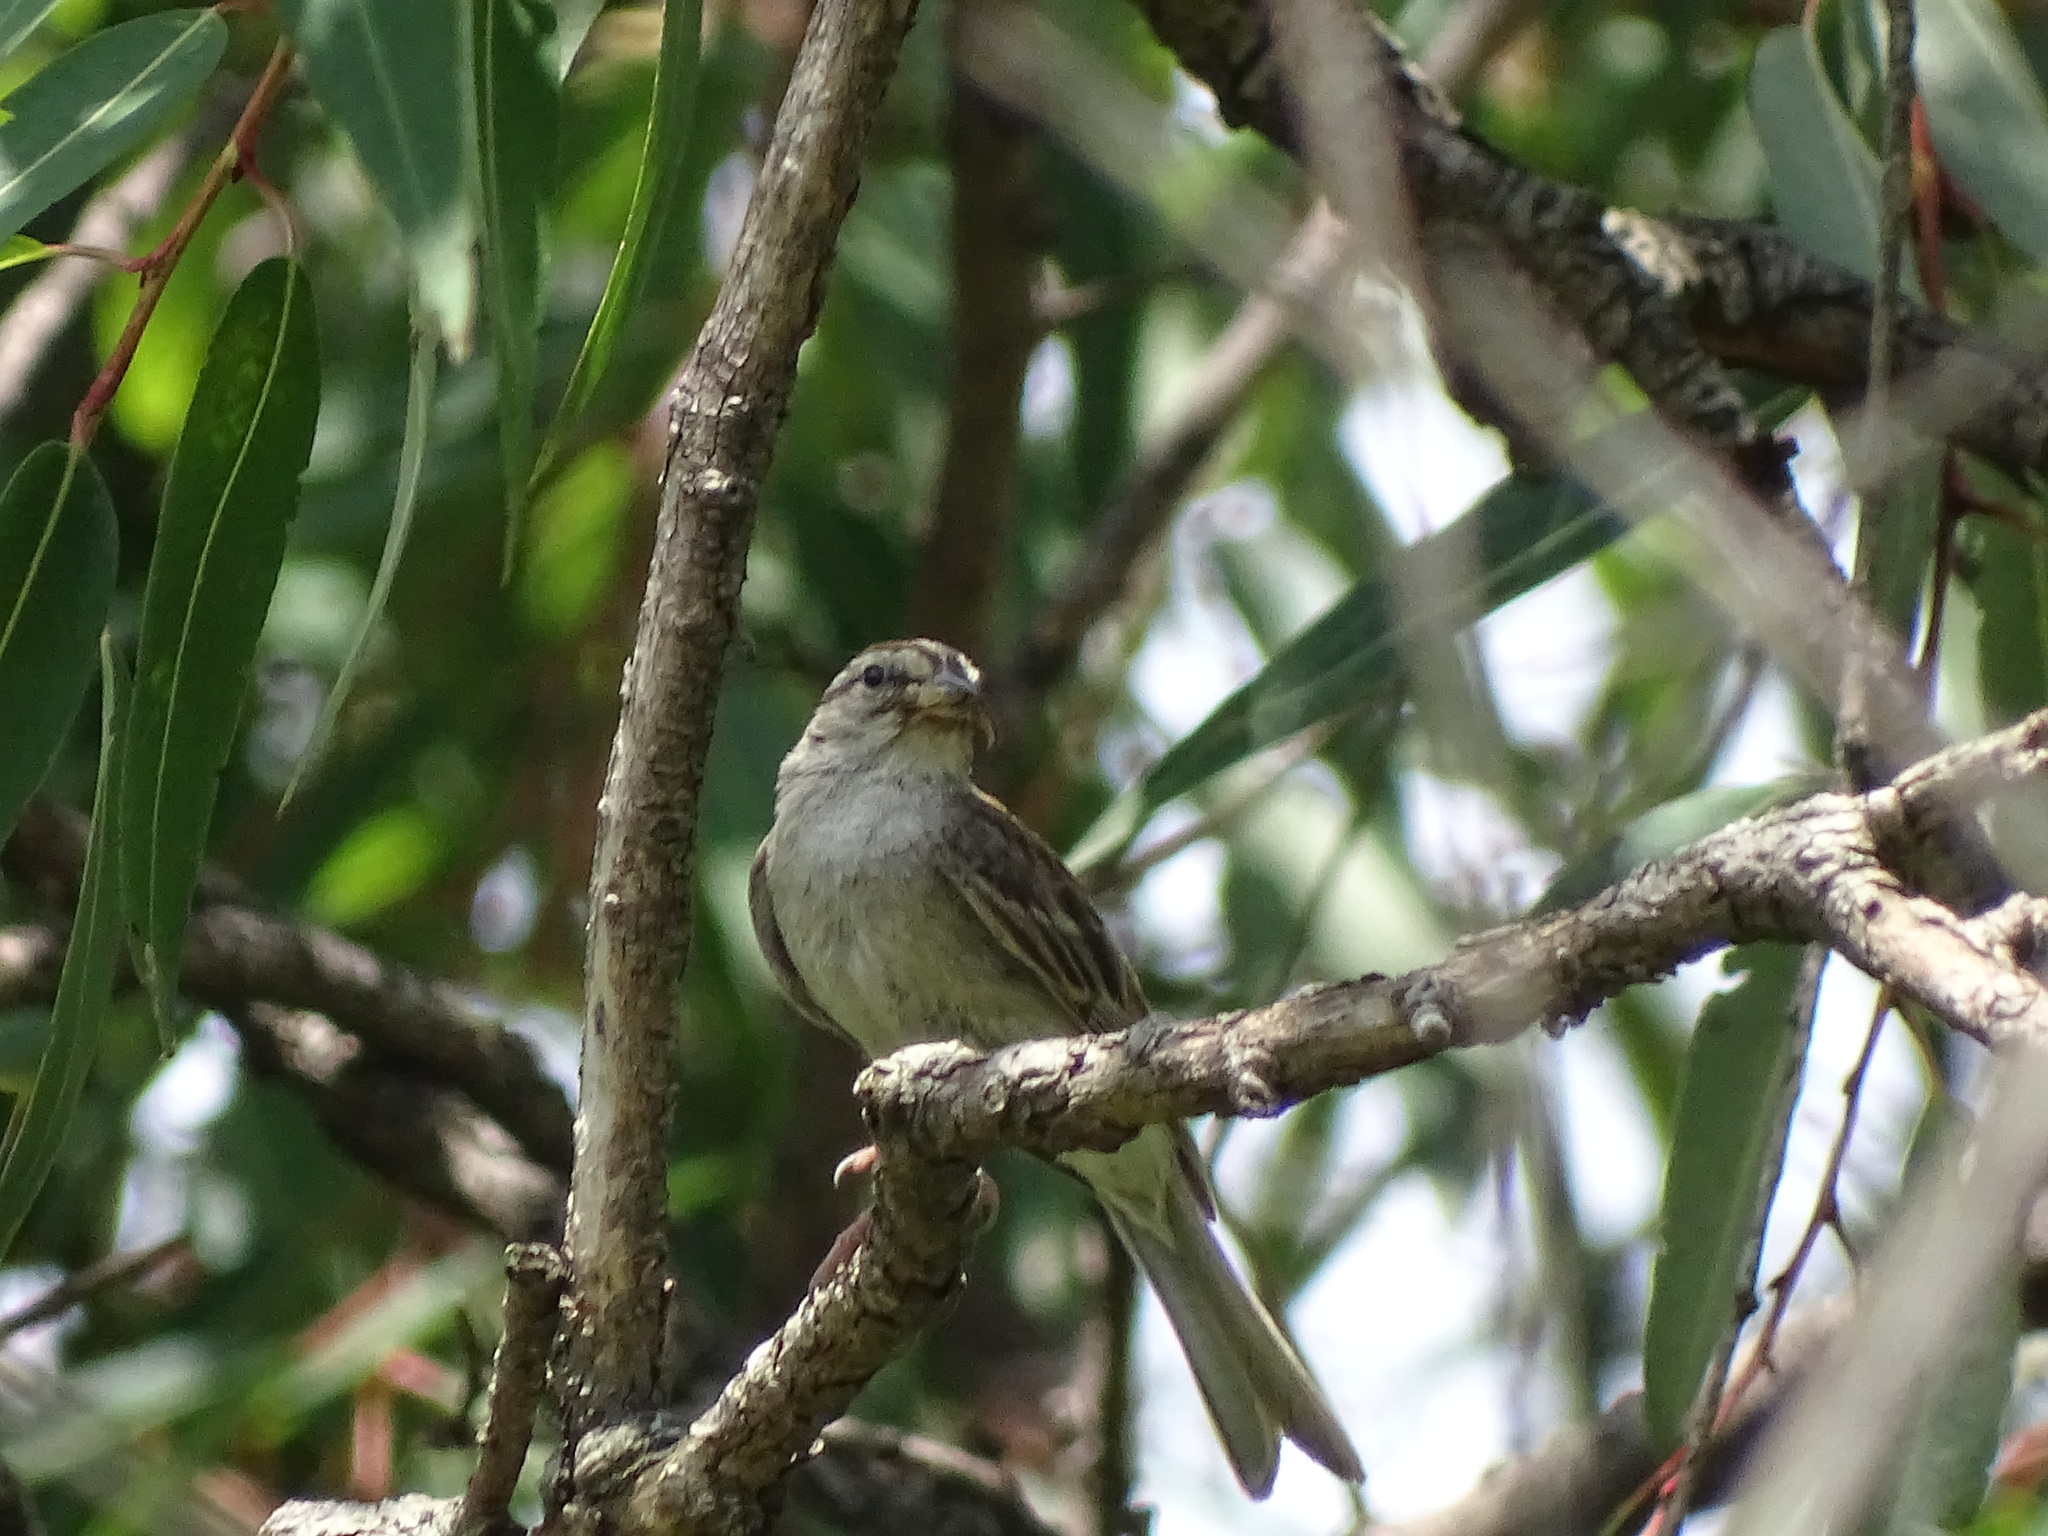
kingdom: Animalia
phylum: Chordata
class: Aves
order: Passeriformes
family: Passerellidae
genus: Spizella
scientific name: Spizella passerina
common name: Chipping sparrow
